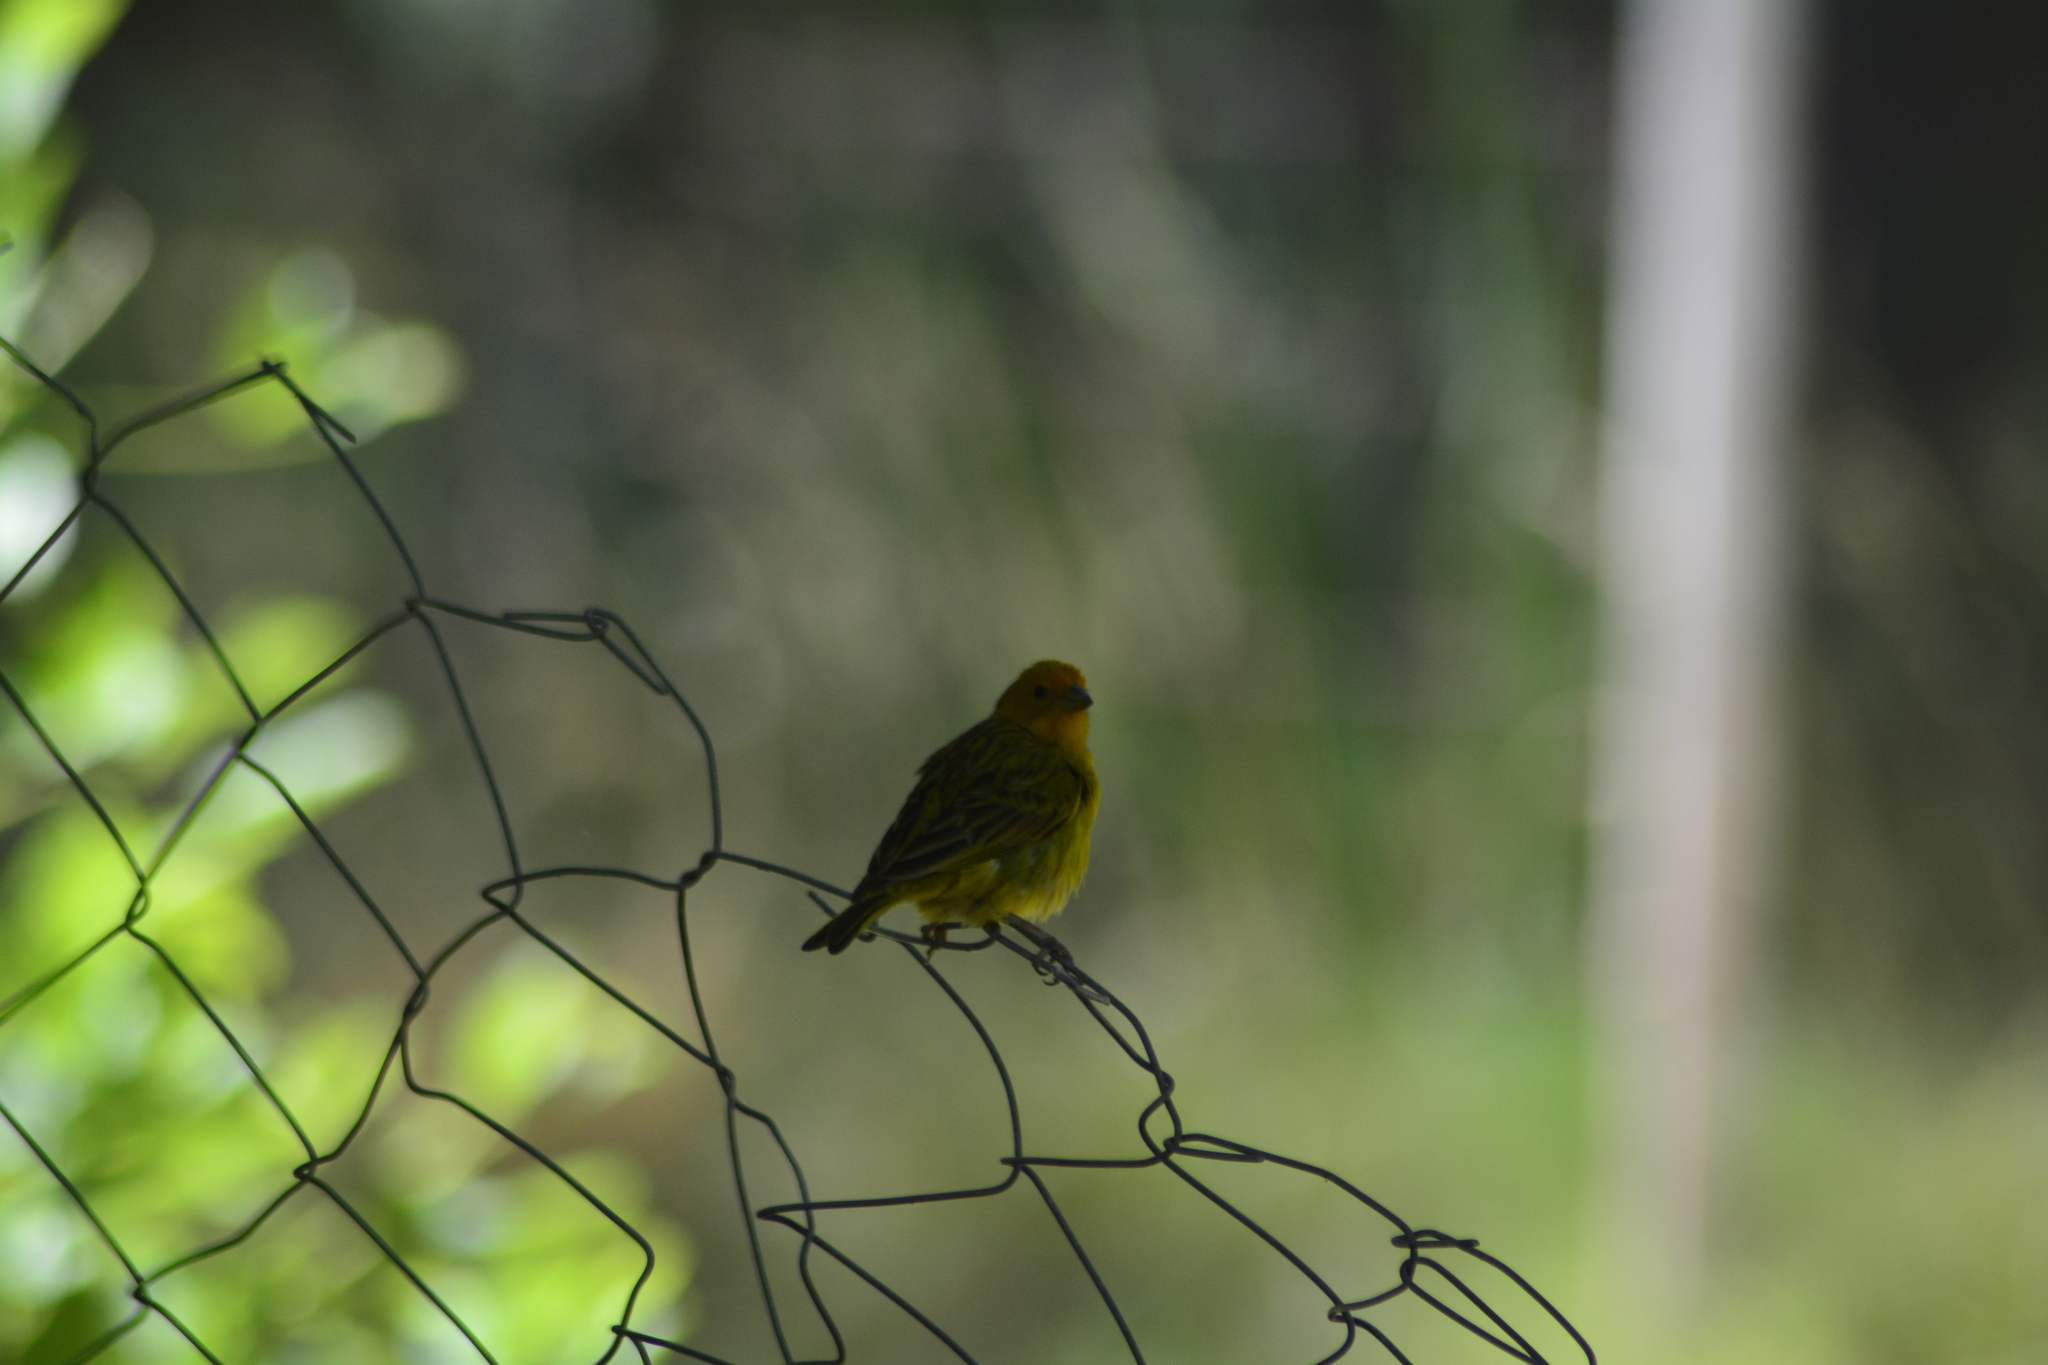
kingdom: Animalia
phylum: Chordata
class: Aves
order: Passeriformes
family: Thraupidae
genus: Sicalis
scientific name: Sicalis flaveola
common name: Saffron finch
